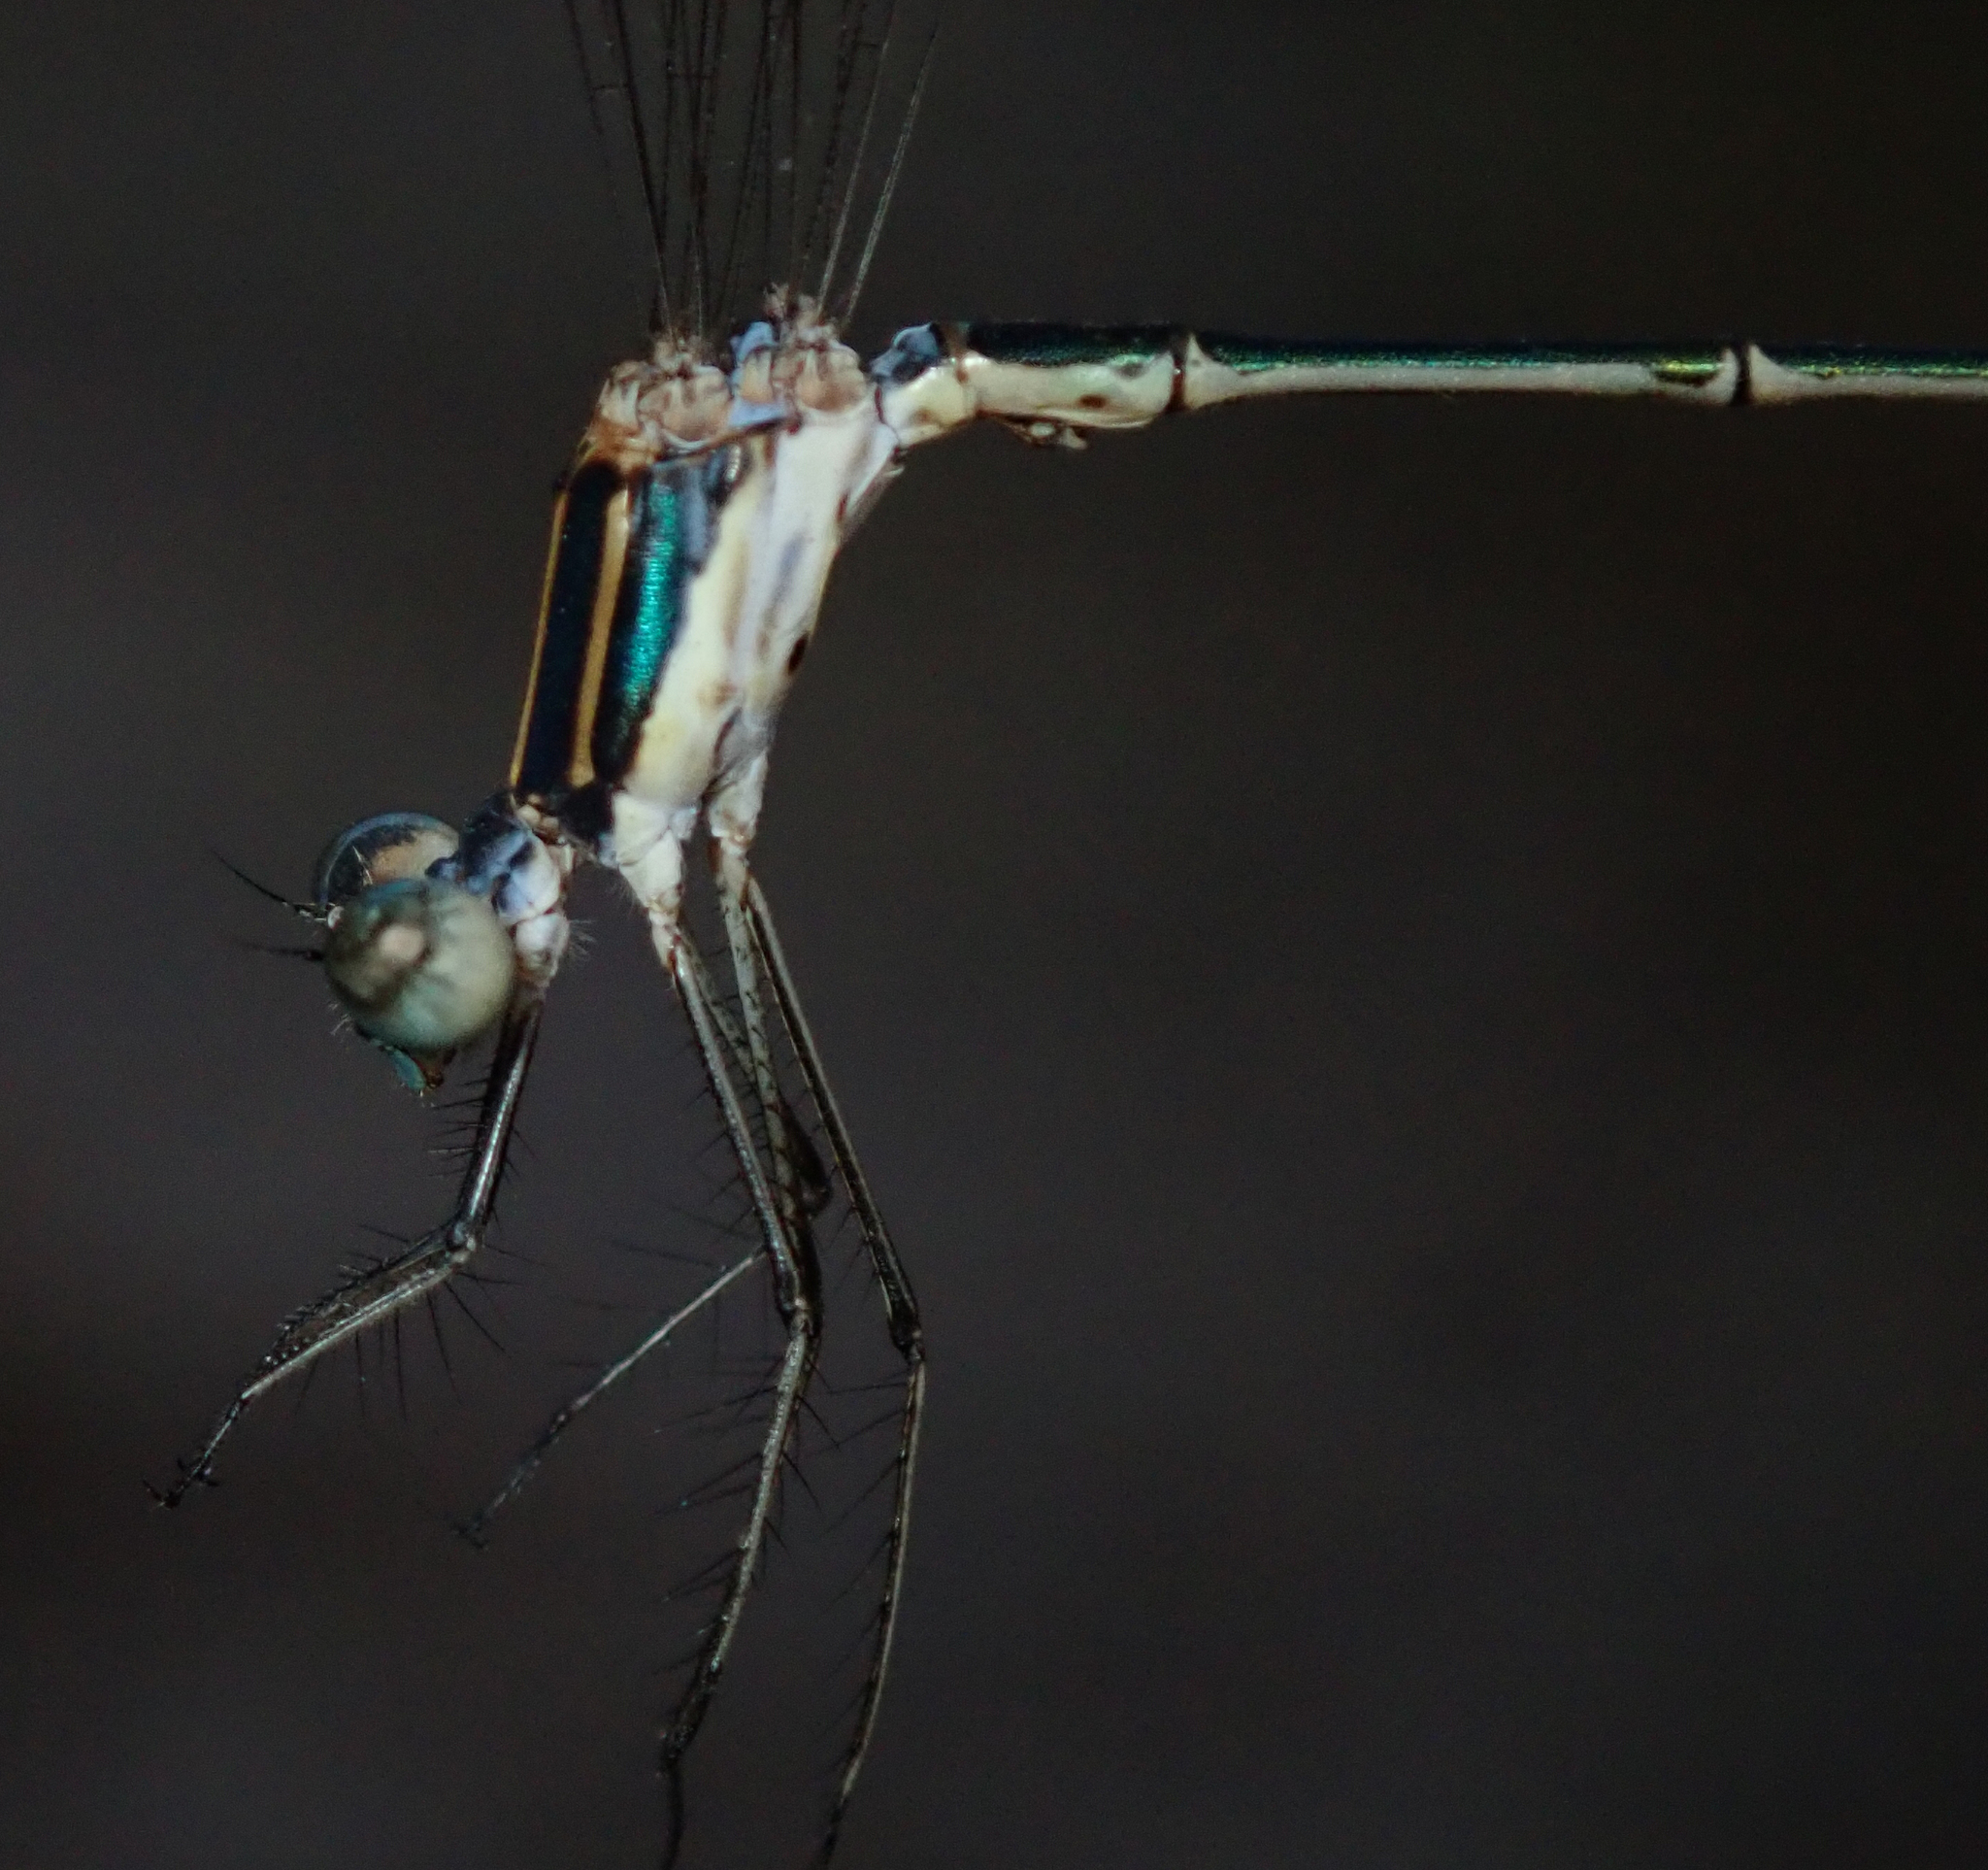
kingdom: Animalia
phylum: Arthropoda
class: Insecta
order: Odonata
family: Lestidae
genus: Lestes
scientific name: Lestes pinheyi
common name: Pinhey's spreadwing
